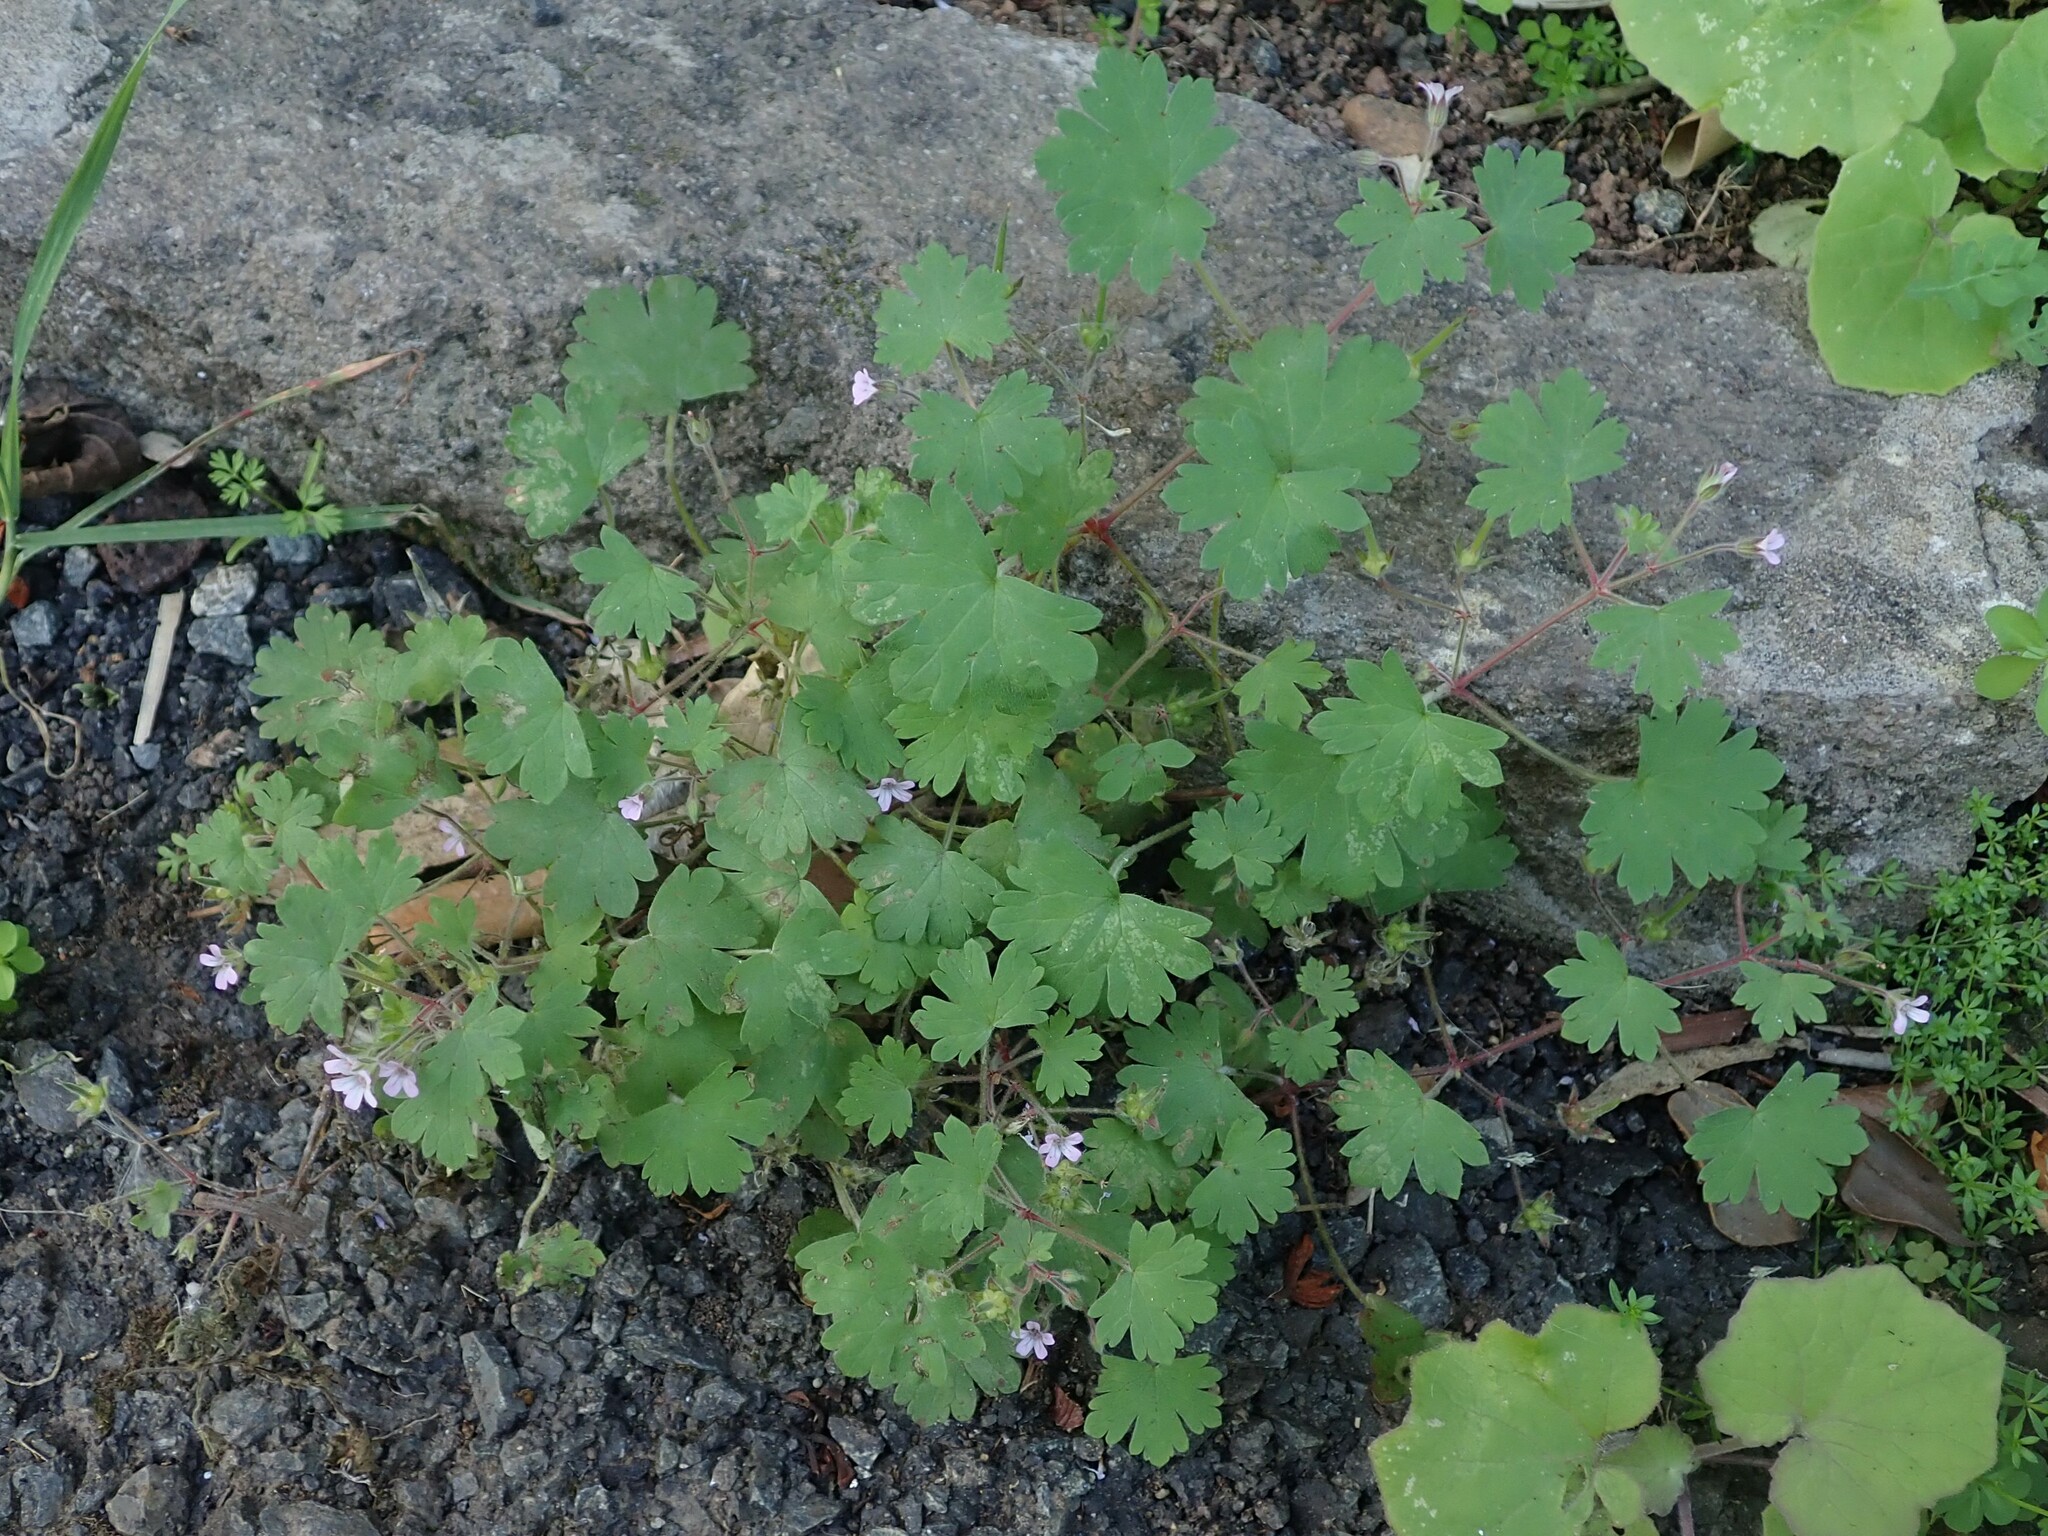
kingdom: Plantae
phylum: Tracheophyta
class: Magnoliopsida
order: Geraniales
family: Geraniaceae
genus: Geranium
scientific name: Geranium rotundifolium
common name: Round-leaved crane's-bill
